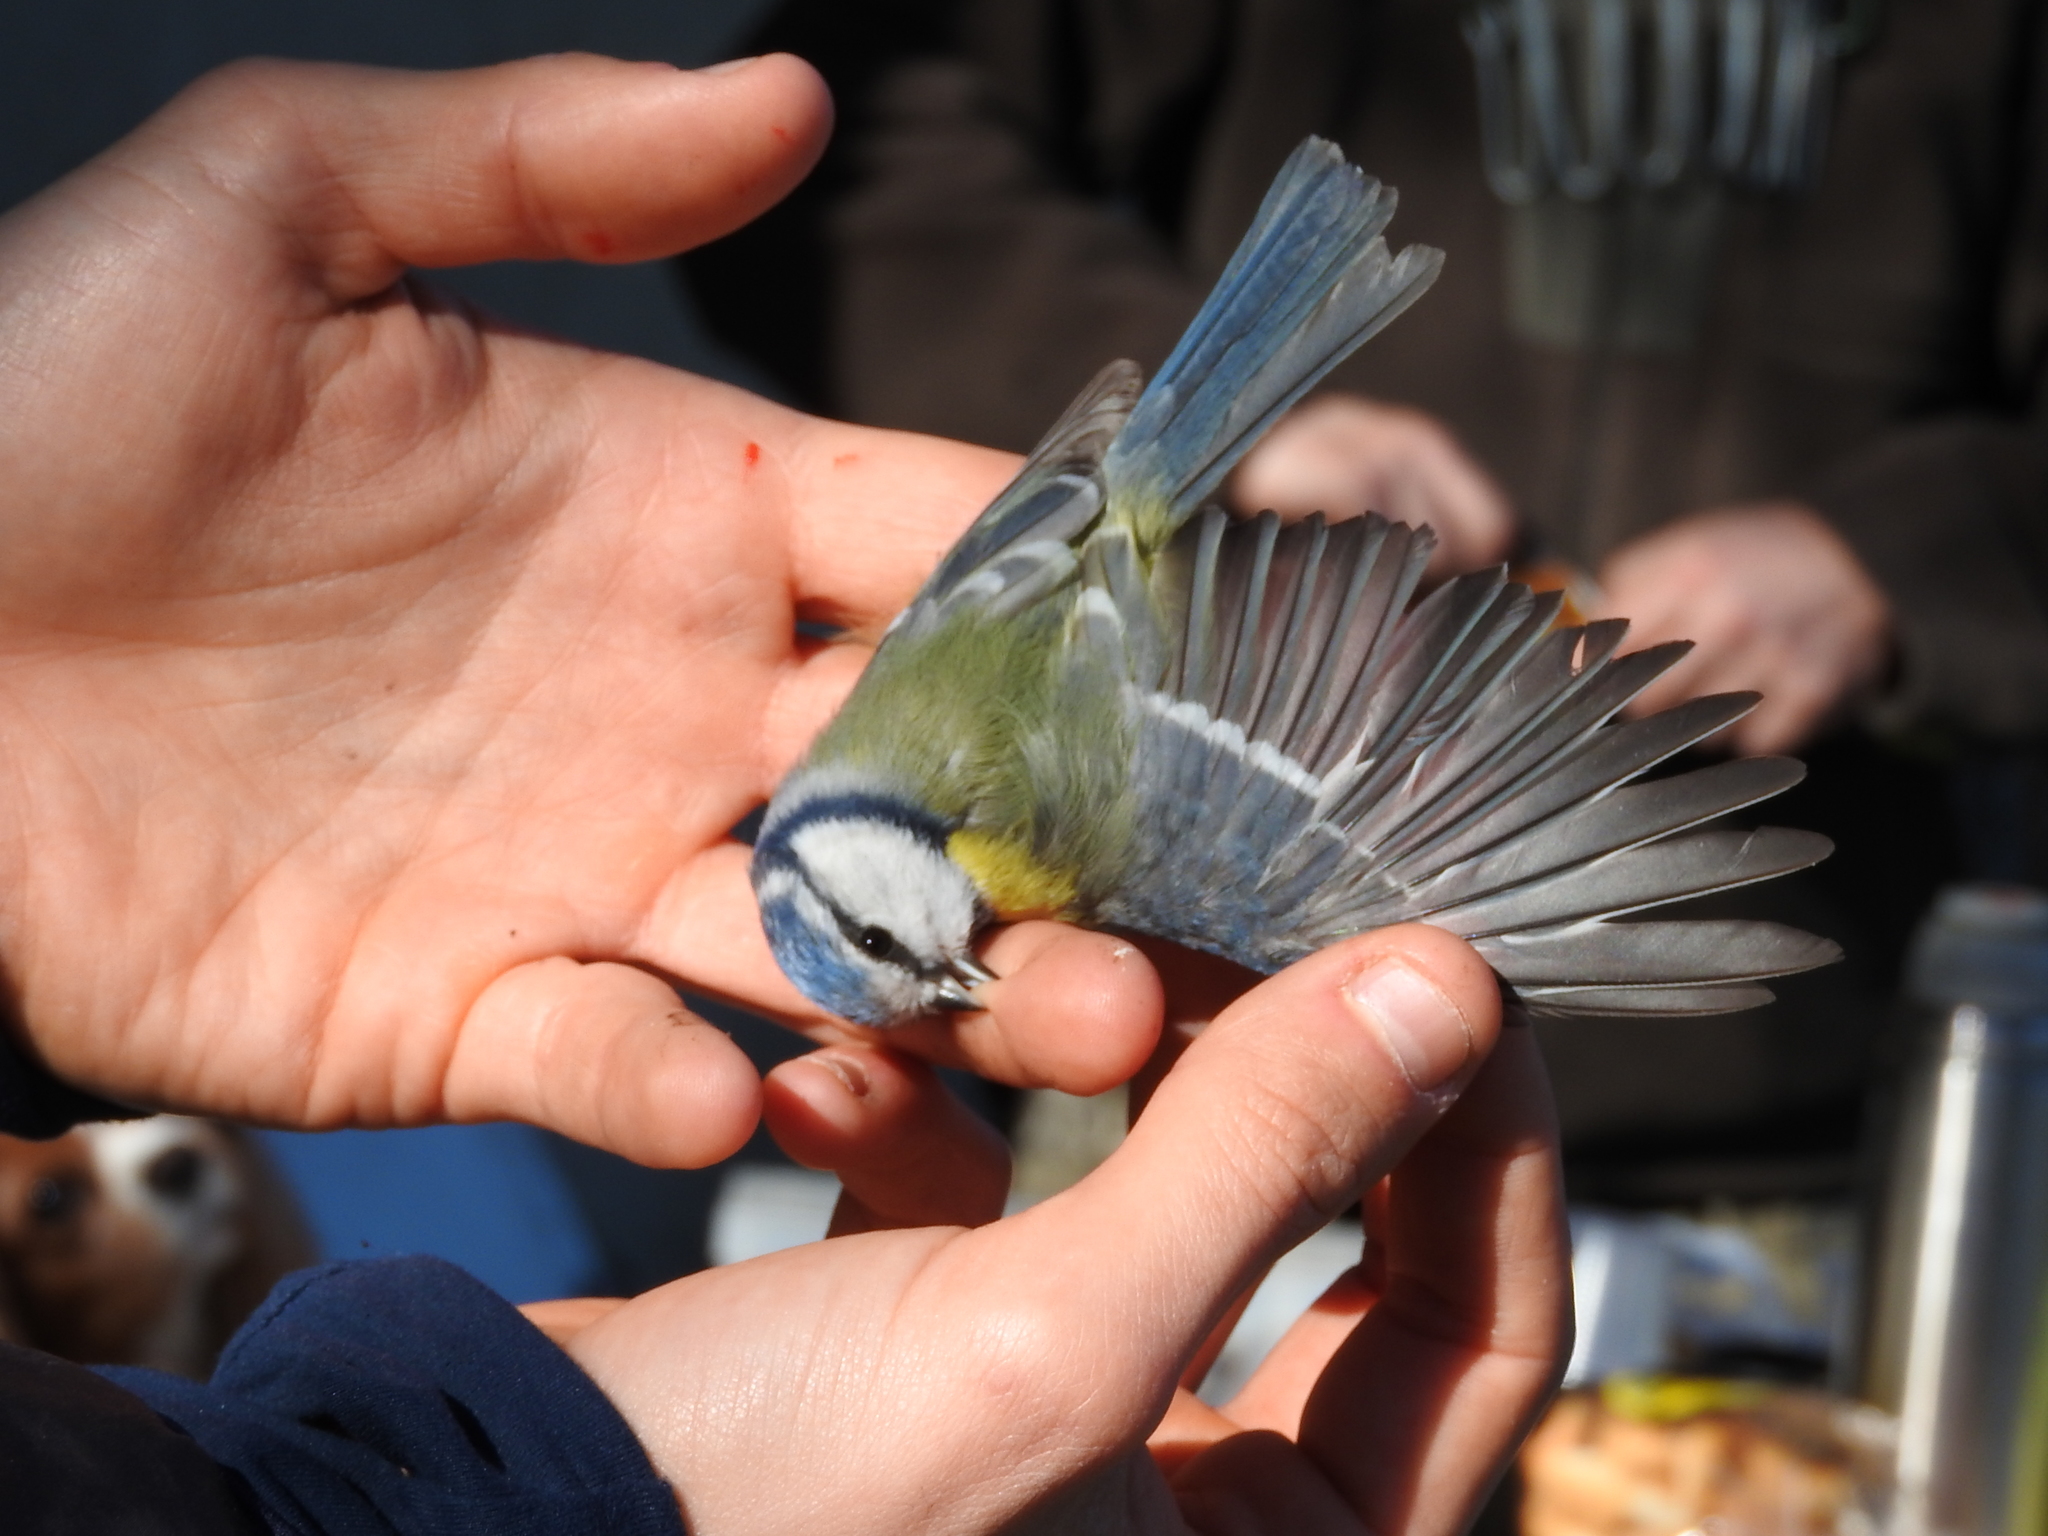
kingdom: Animalia
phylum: Chordata
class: Aves
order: Passeriformes
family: Paridae
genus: Cyanistes
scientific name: Cyanistes caeruleus
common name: Eurasian blue tit
